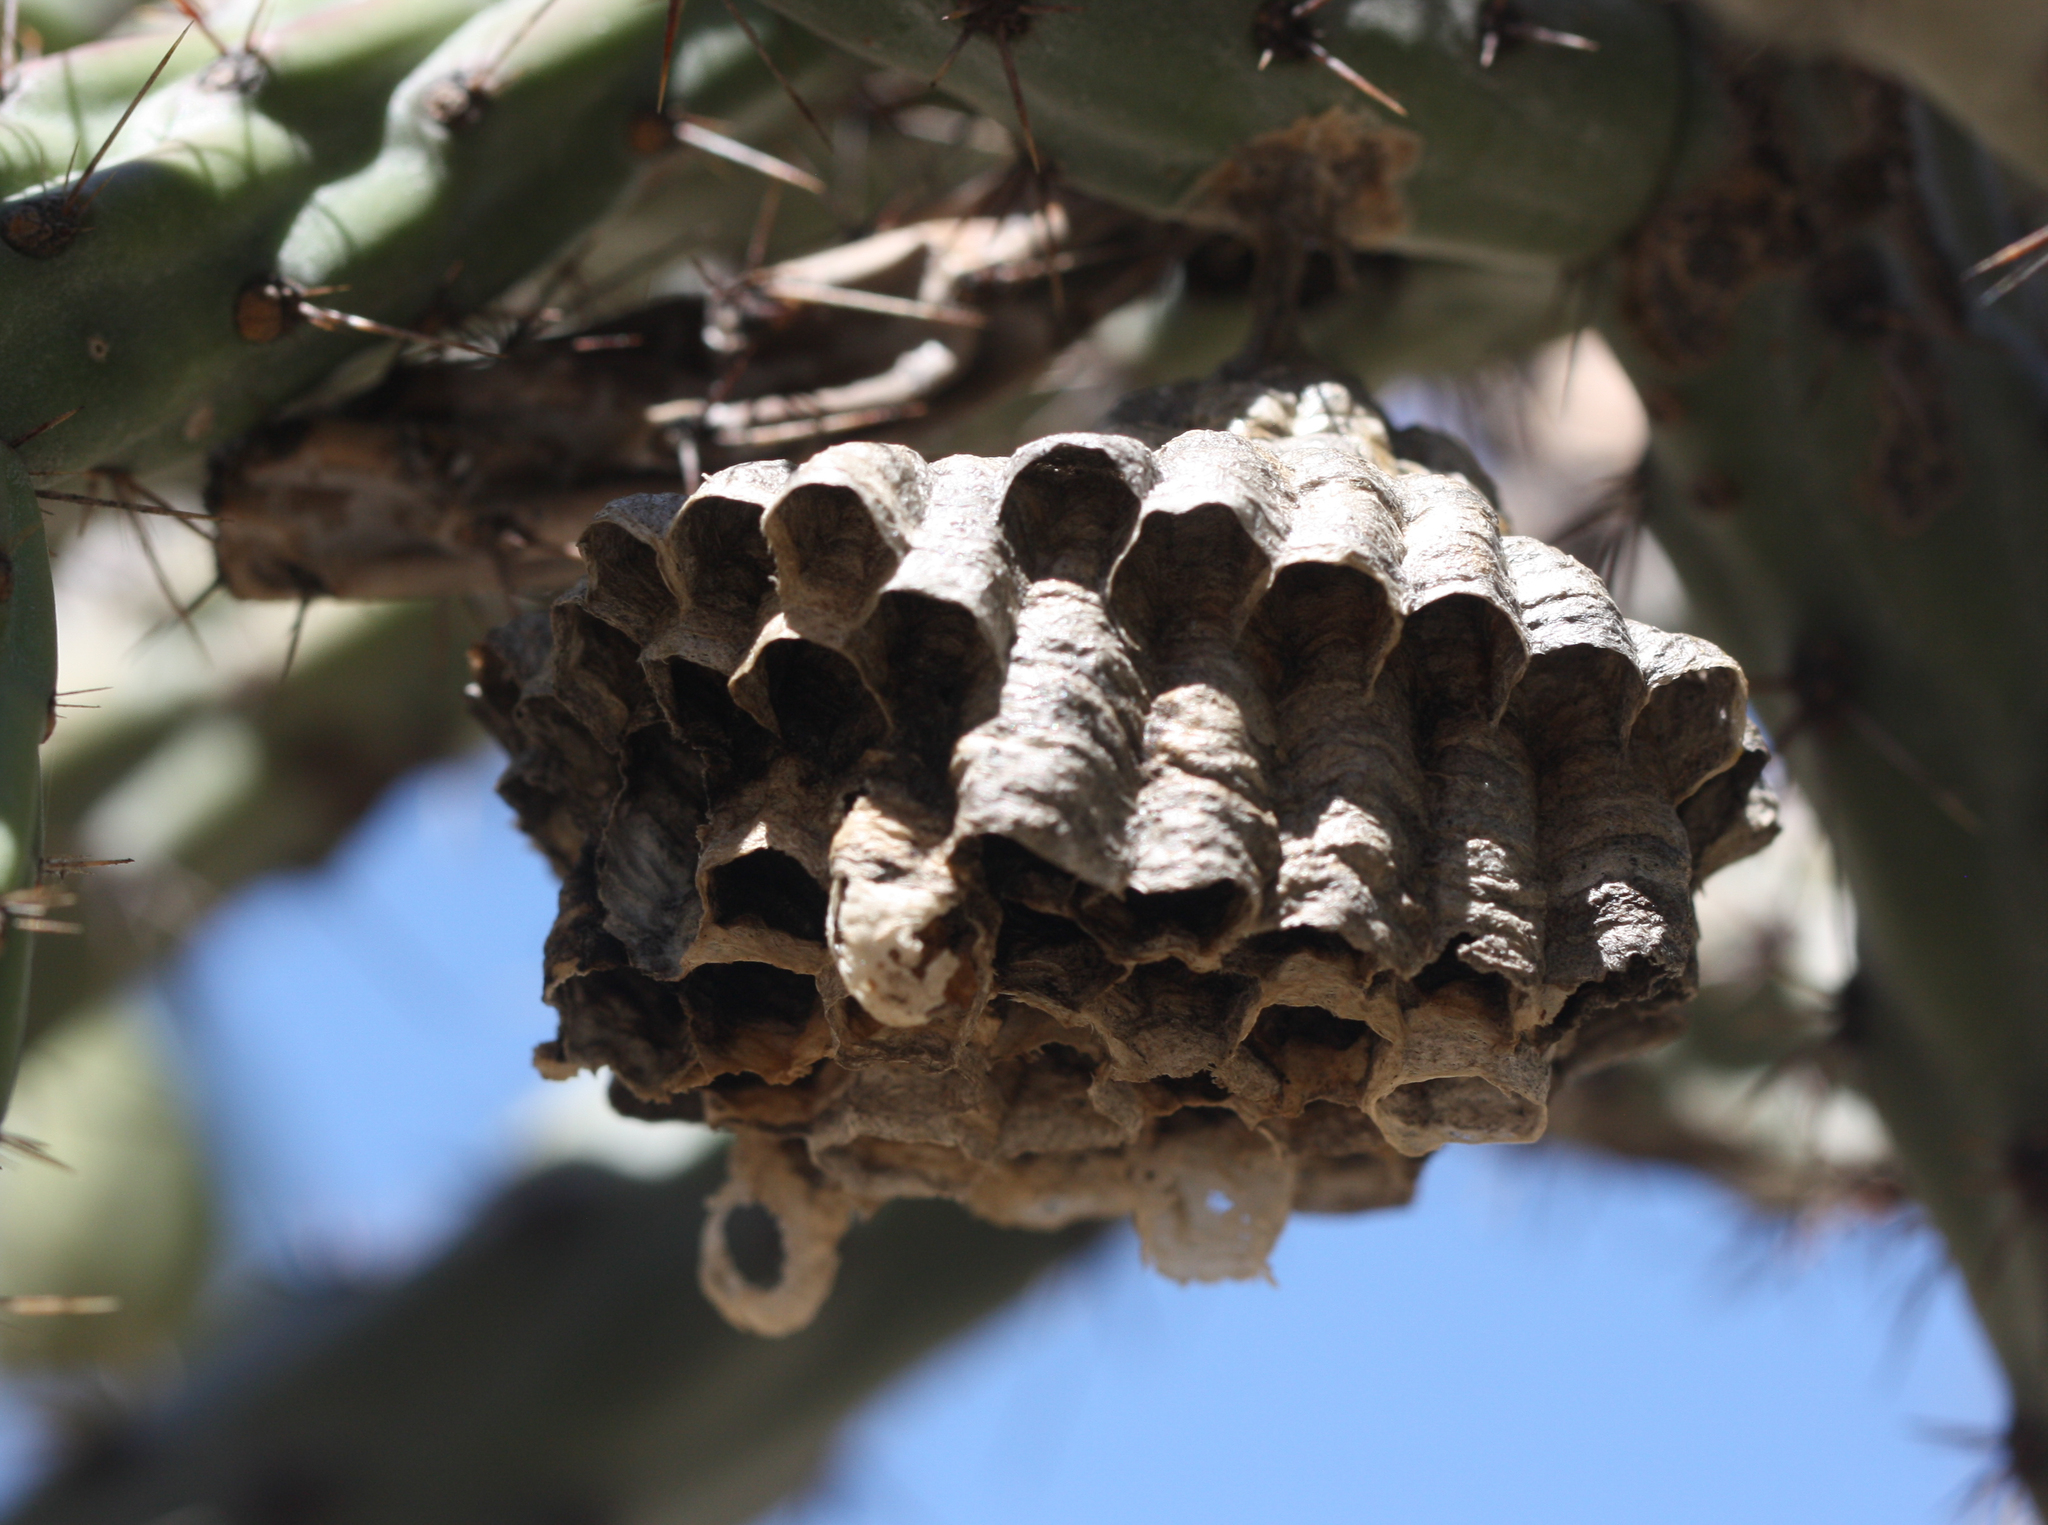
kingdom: Animalia
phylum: Arthropoda
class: Insecta
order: Hymenoptera
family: Eumenidae
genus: Polistes
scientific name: Polistes
